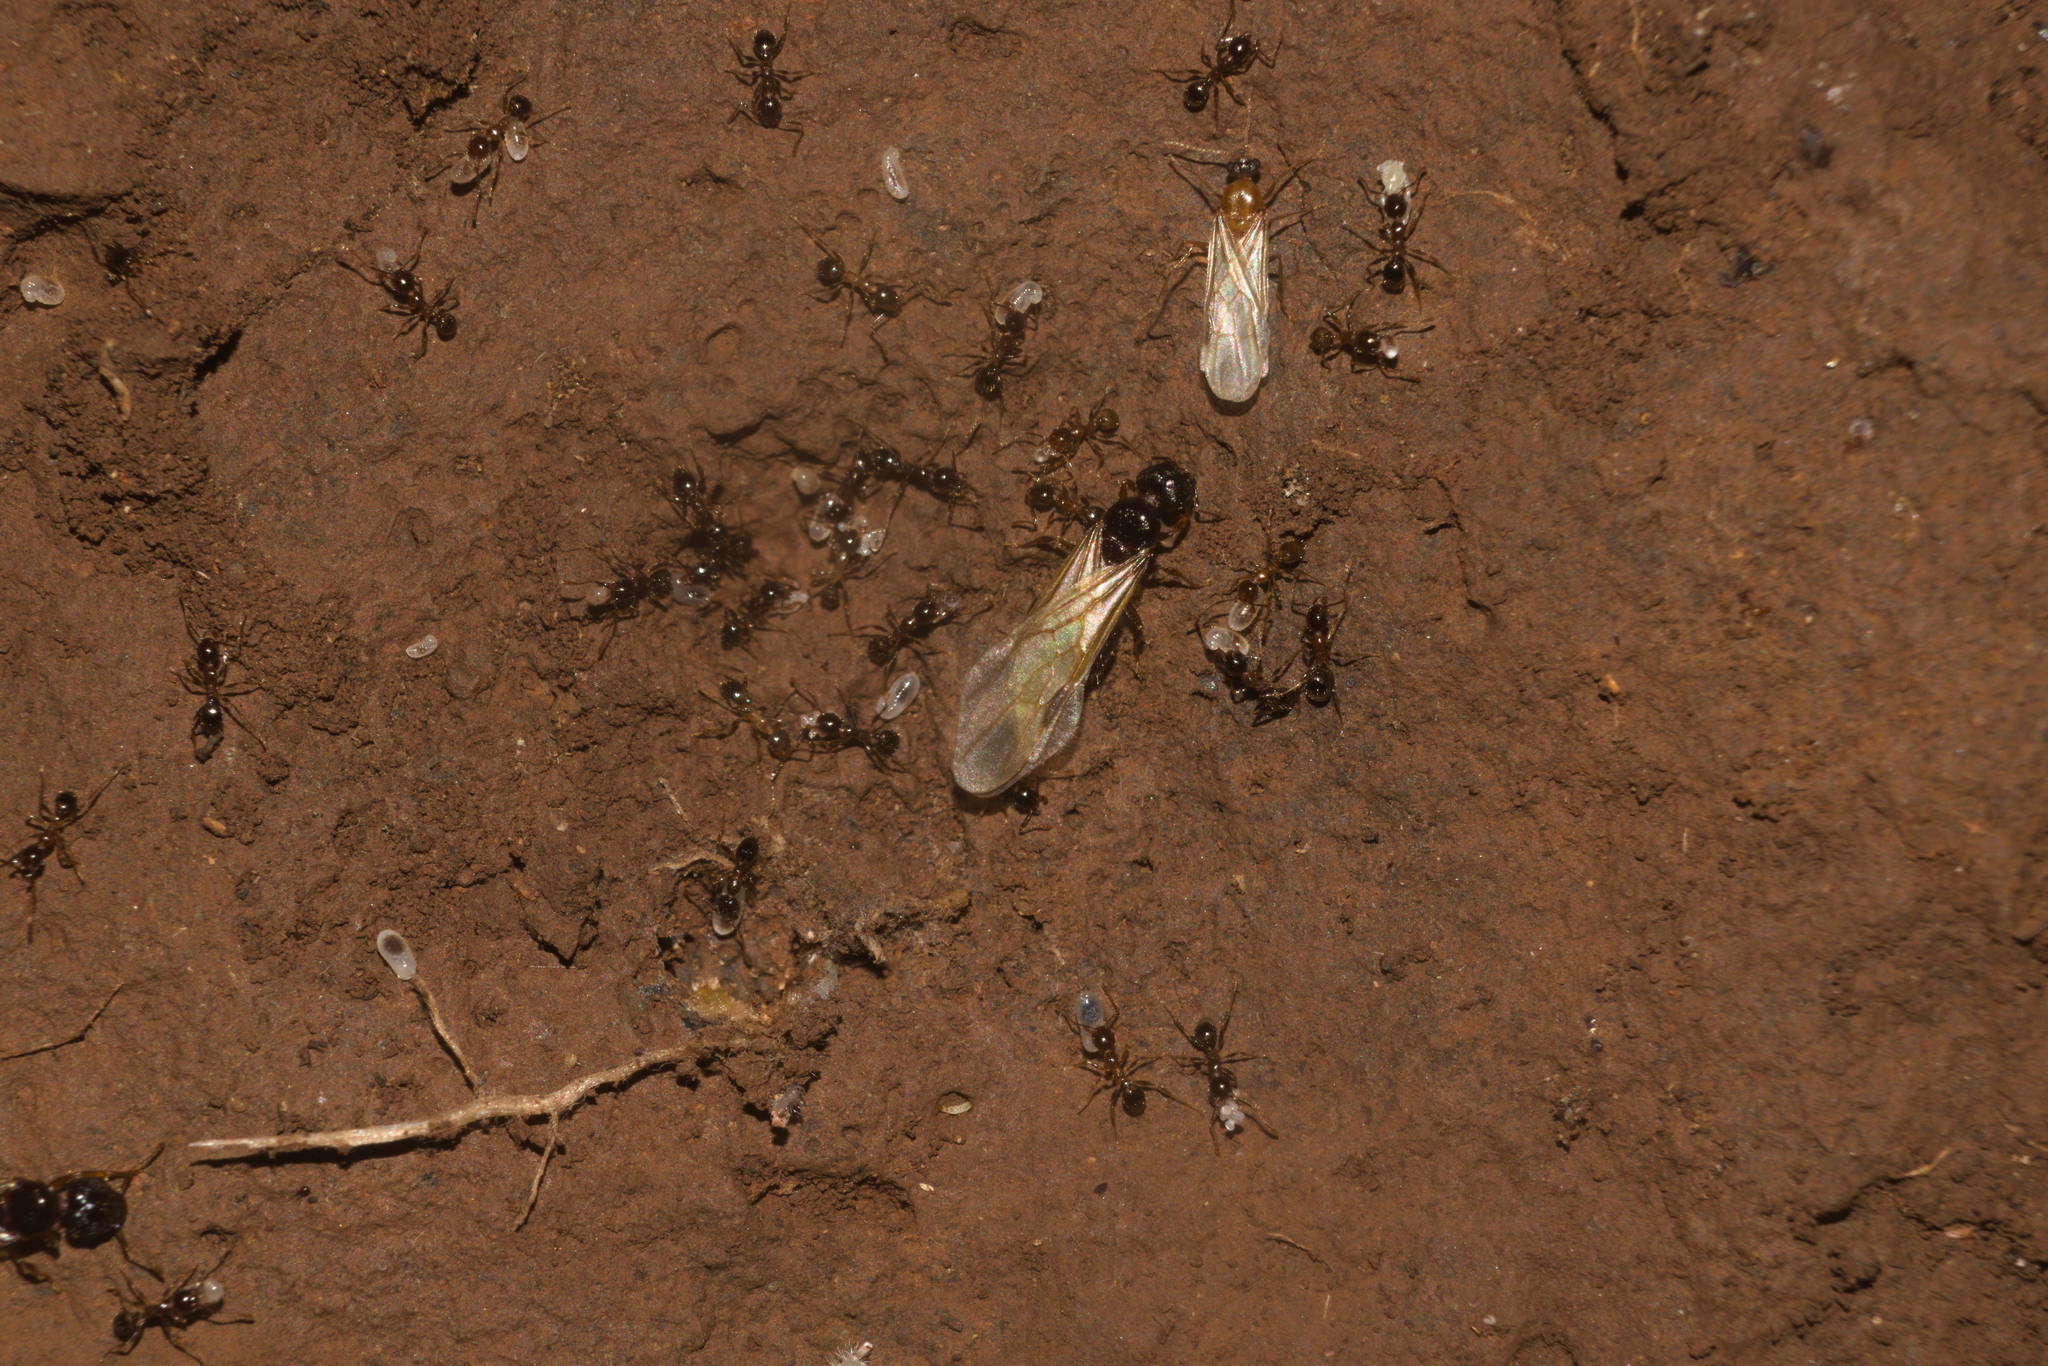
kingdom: Animalia
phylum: Arthropoda
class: Insecta
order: Hymenoptera
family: Formicidae
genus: Pheidole
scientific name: Pheidole megacephala
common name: Bigheaded ant
